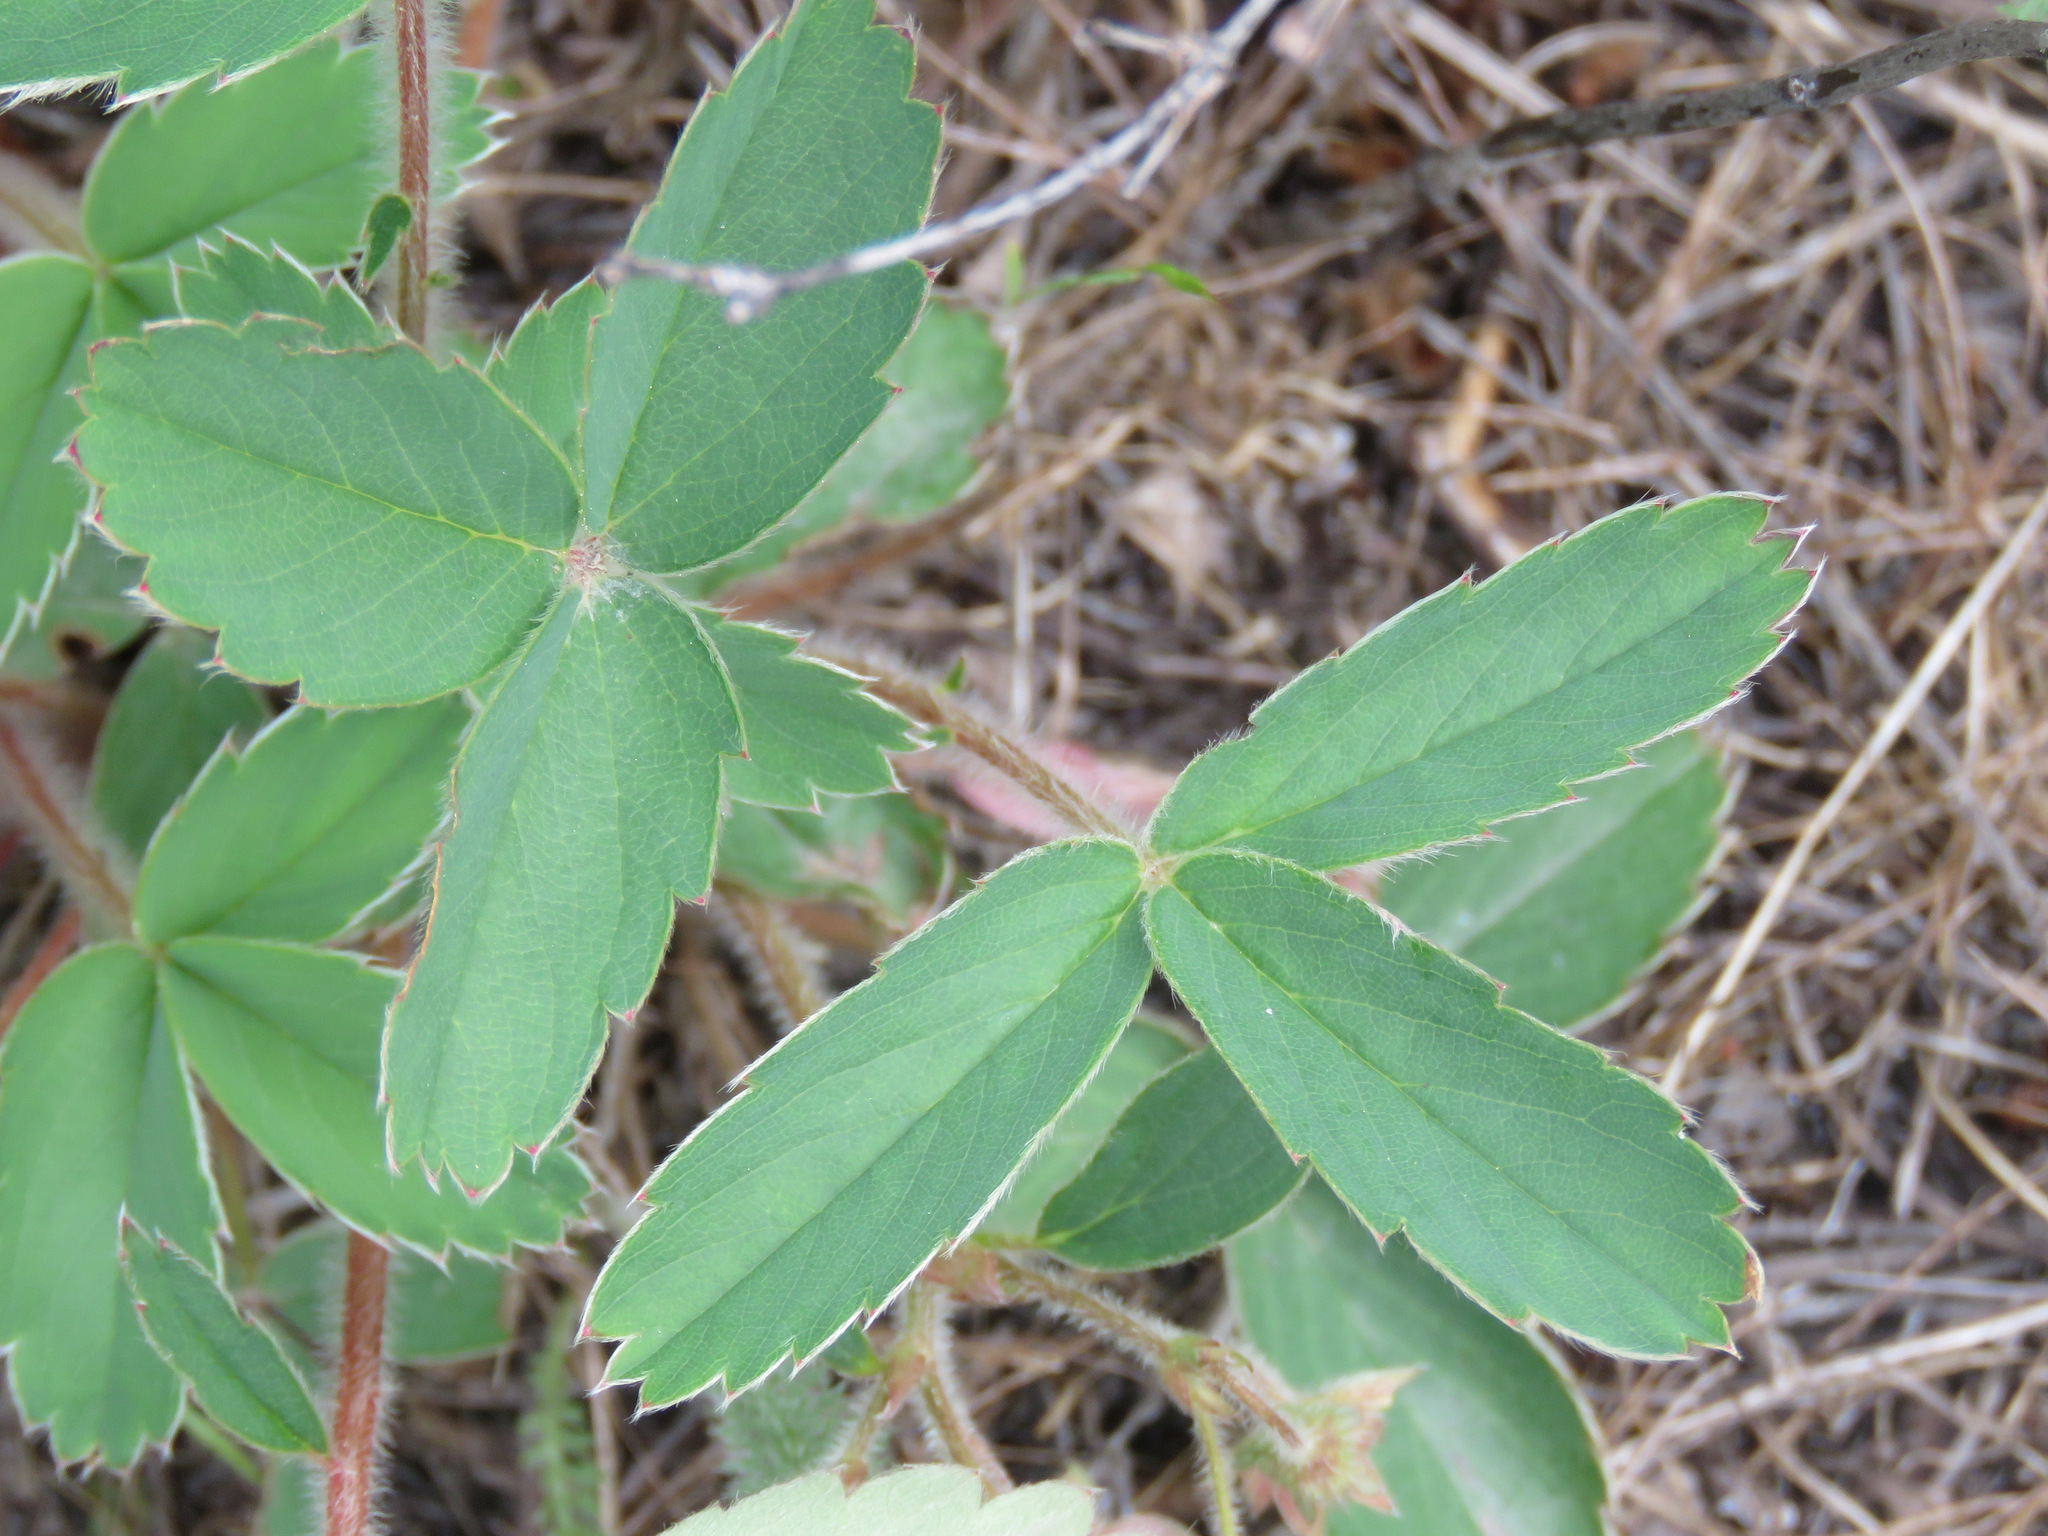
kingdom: Plantae
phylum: Tracheophyta
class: Magnoliopsida
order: Rosales
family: Rosaceae
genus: Fragaria
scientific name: Fragaria virginiana
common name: Thickleaved wild strawberry
